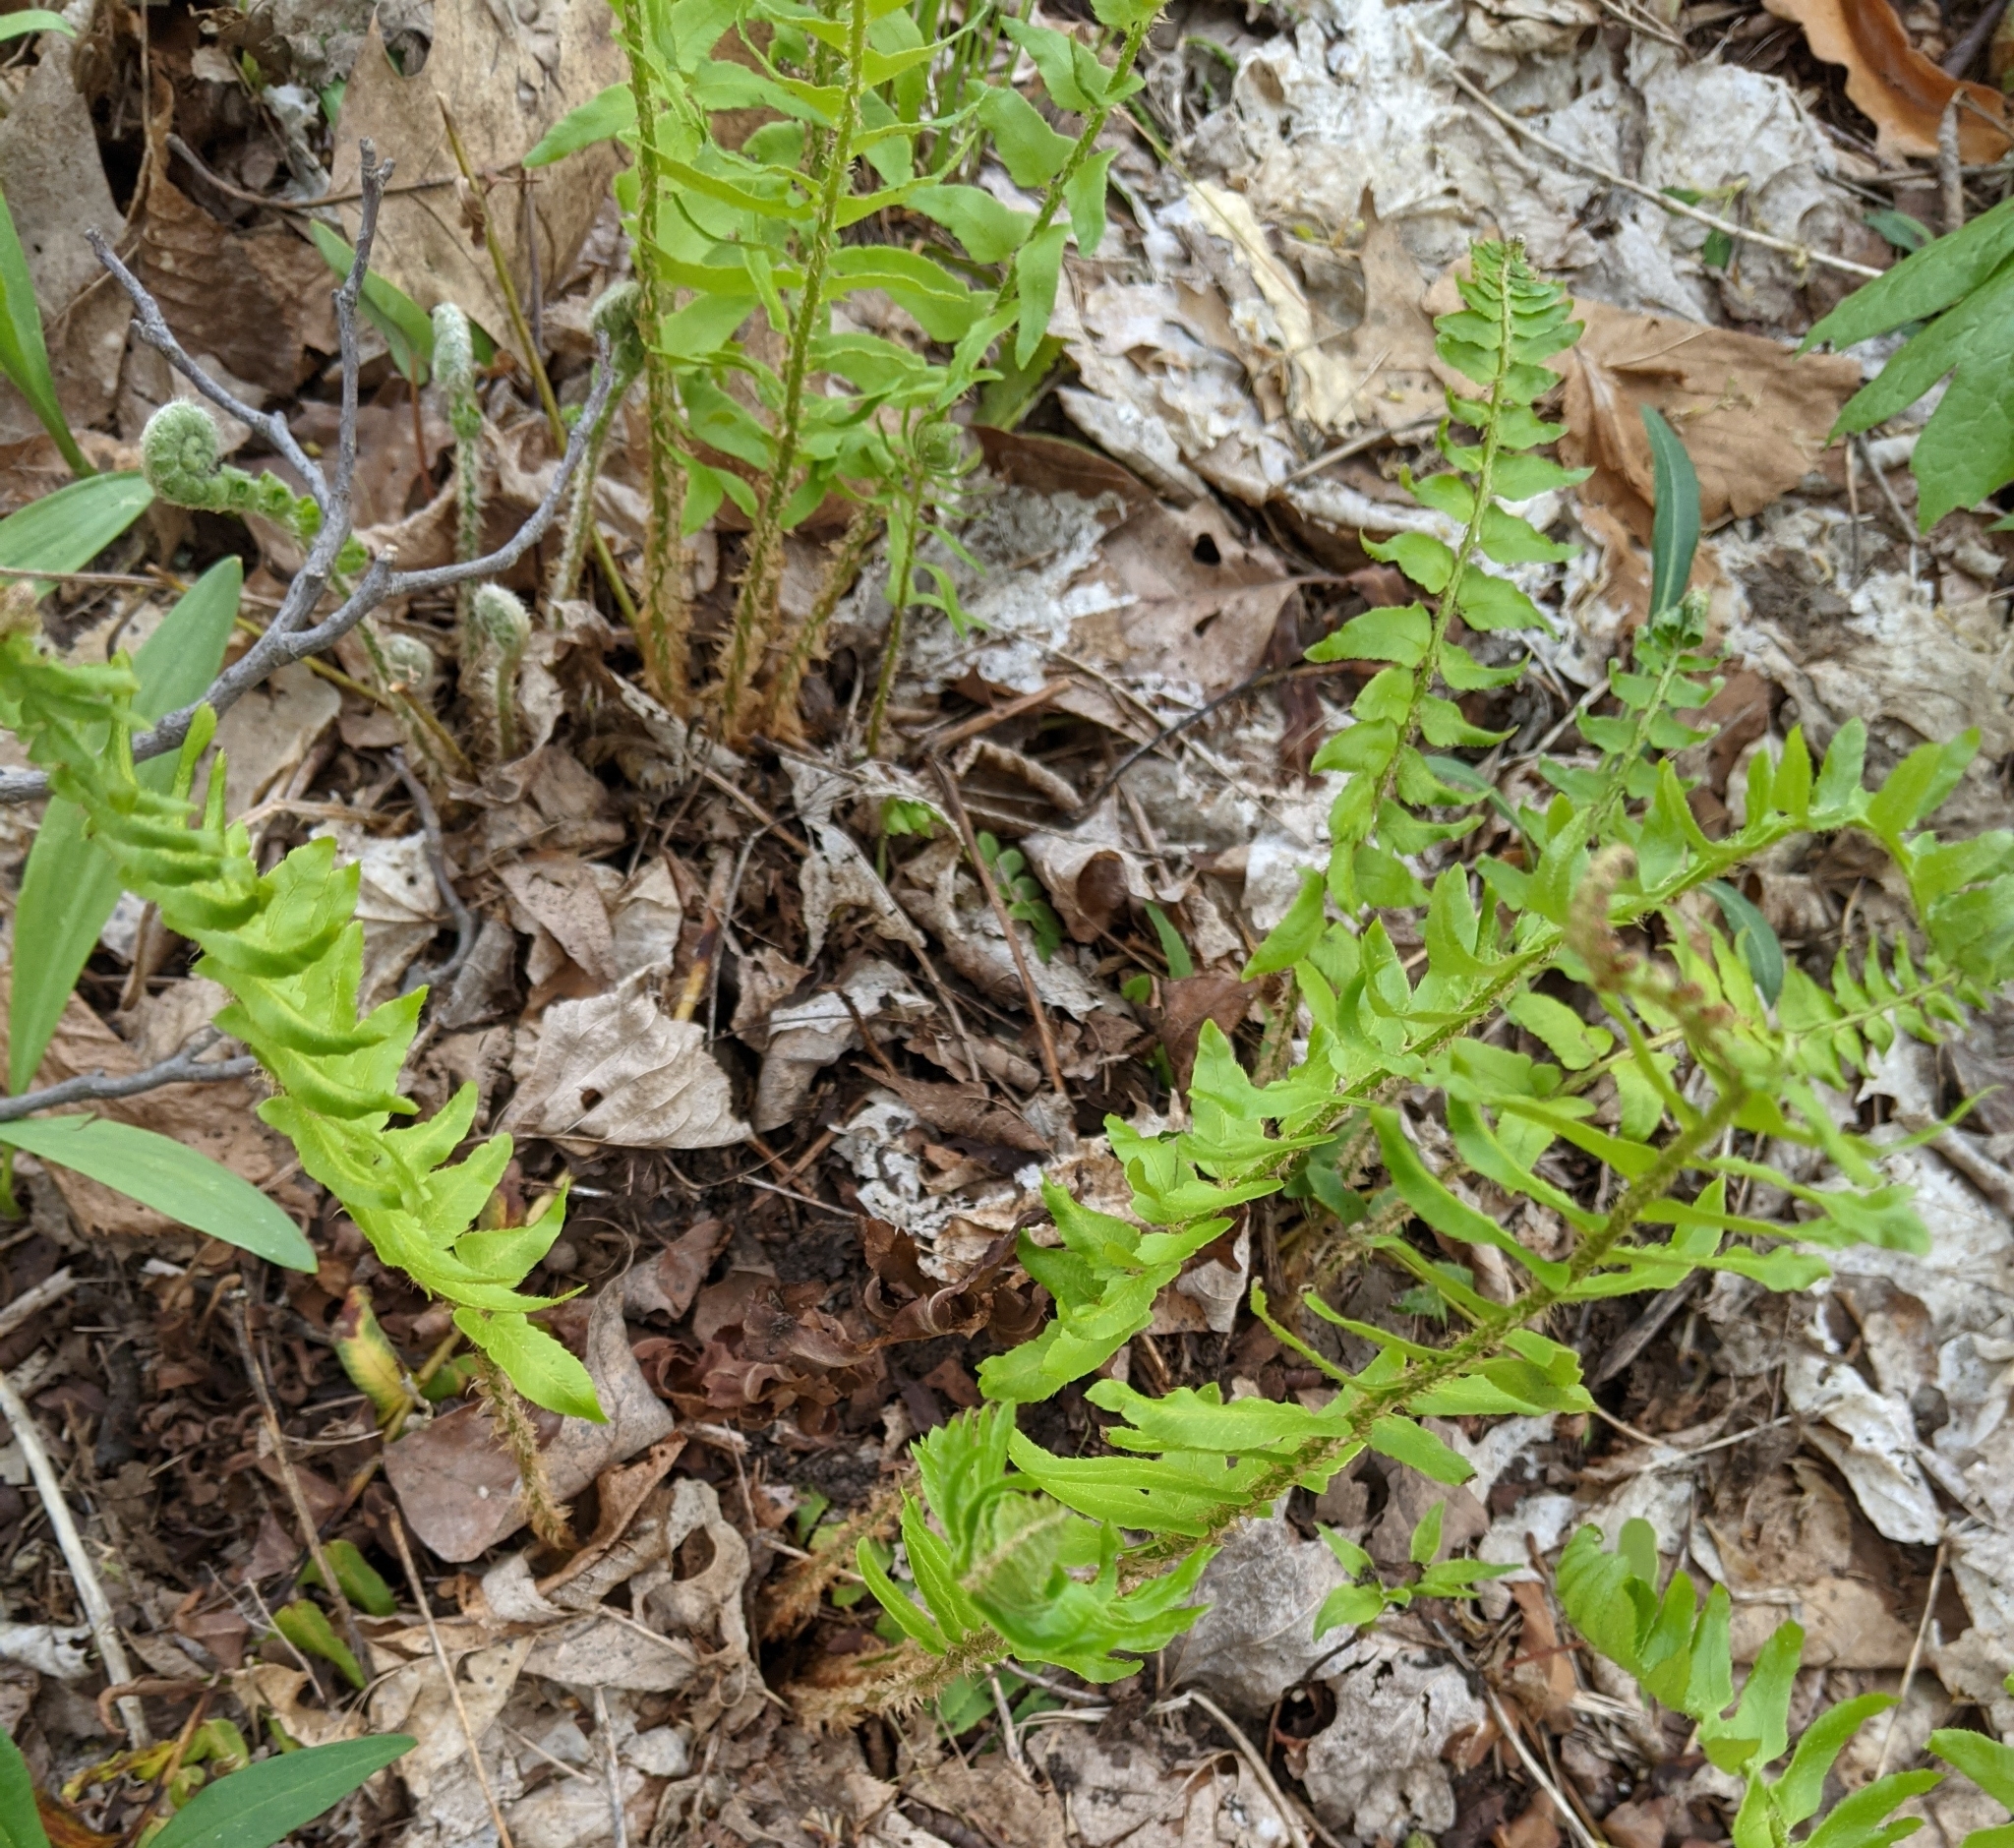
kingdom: Plantae
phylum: Tracheophyta
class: Polypodiopsida
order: Polypodiales
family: Dryopteridaceae
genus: Polystichum
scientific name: Polystichum acrostichoides
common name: Christmas fern
